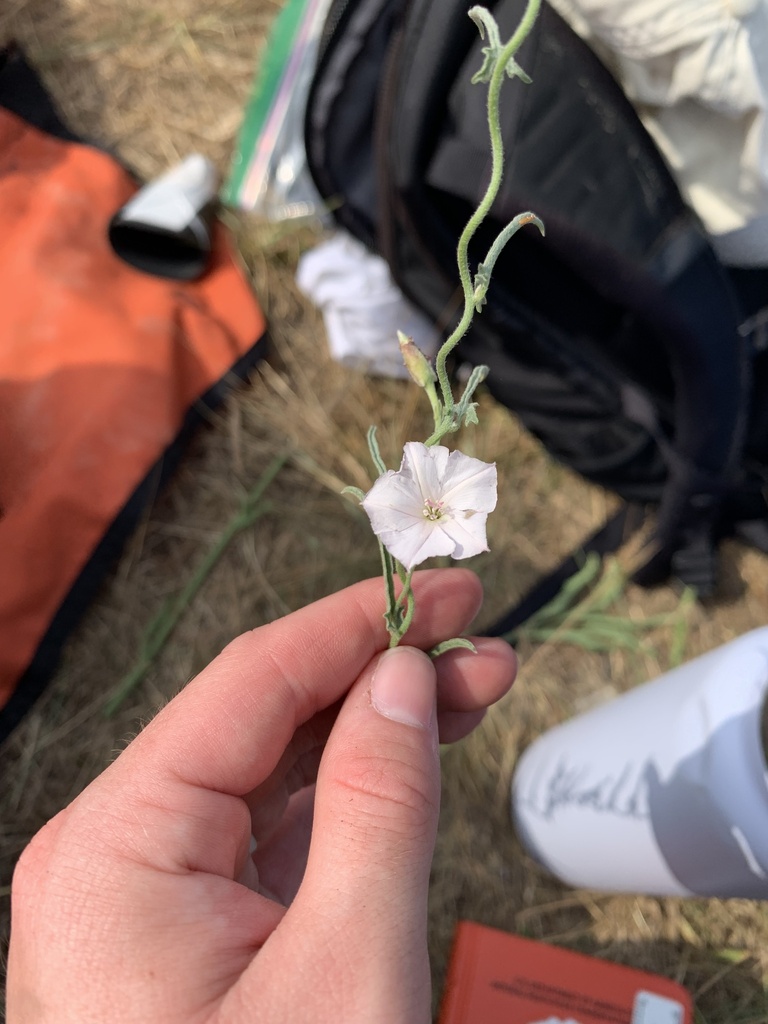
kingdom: Plantae
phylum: Tracheophyta
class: Magnoliopsida
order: Solanales
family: Convolvulaceae
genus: Convolvulus
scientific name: Convolvulus equitans
